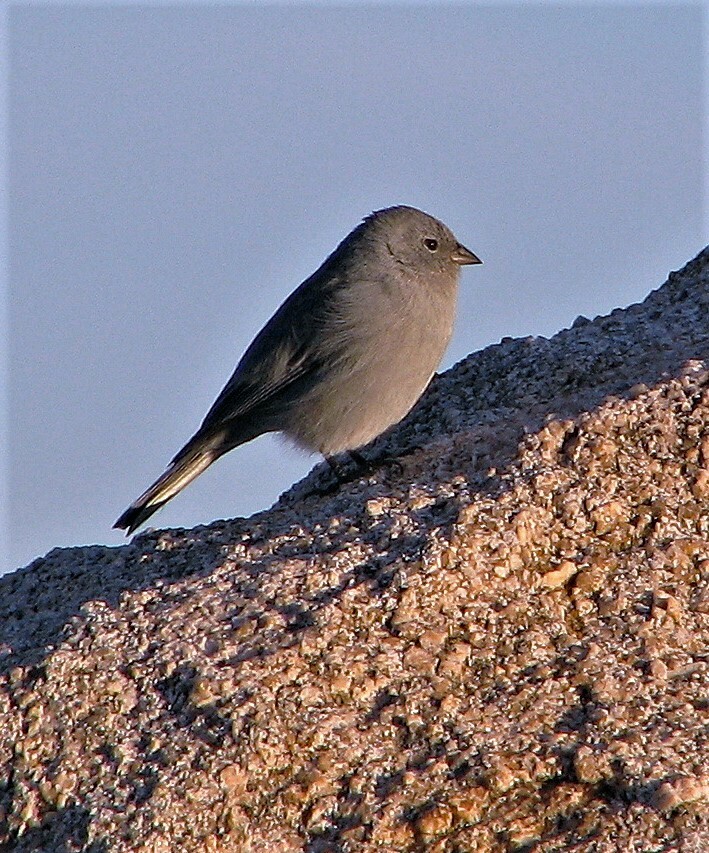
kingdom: Animalia
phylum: Chordata
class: Aves
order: Passeriformes
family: Thraupidae
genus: Geospizopsis
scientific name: Geospizopsis unicolor
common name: Plumbeous sierra-finch
